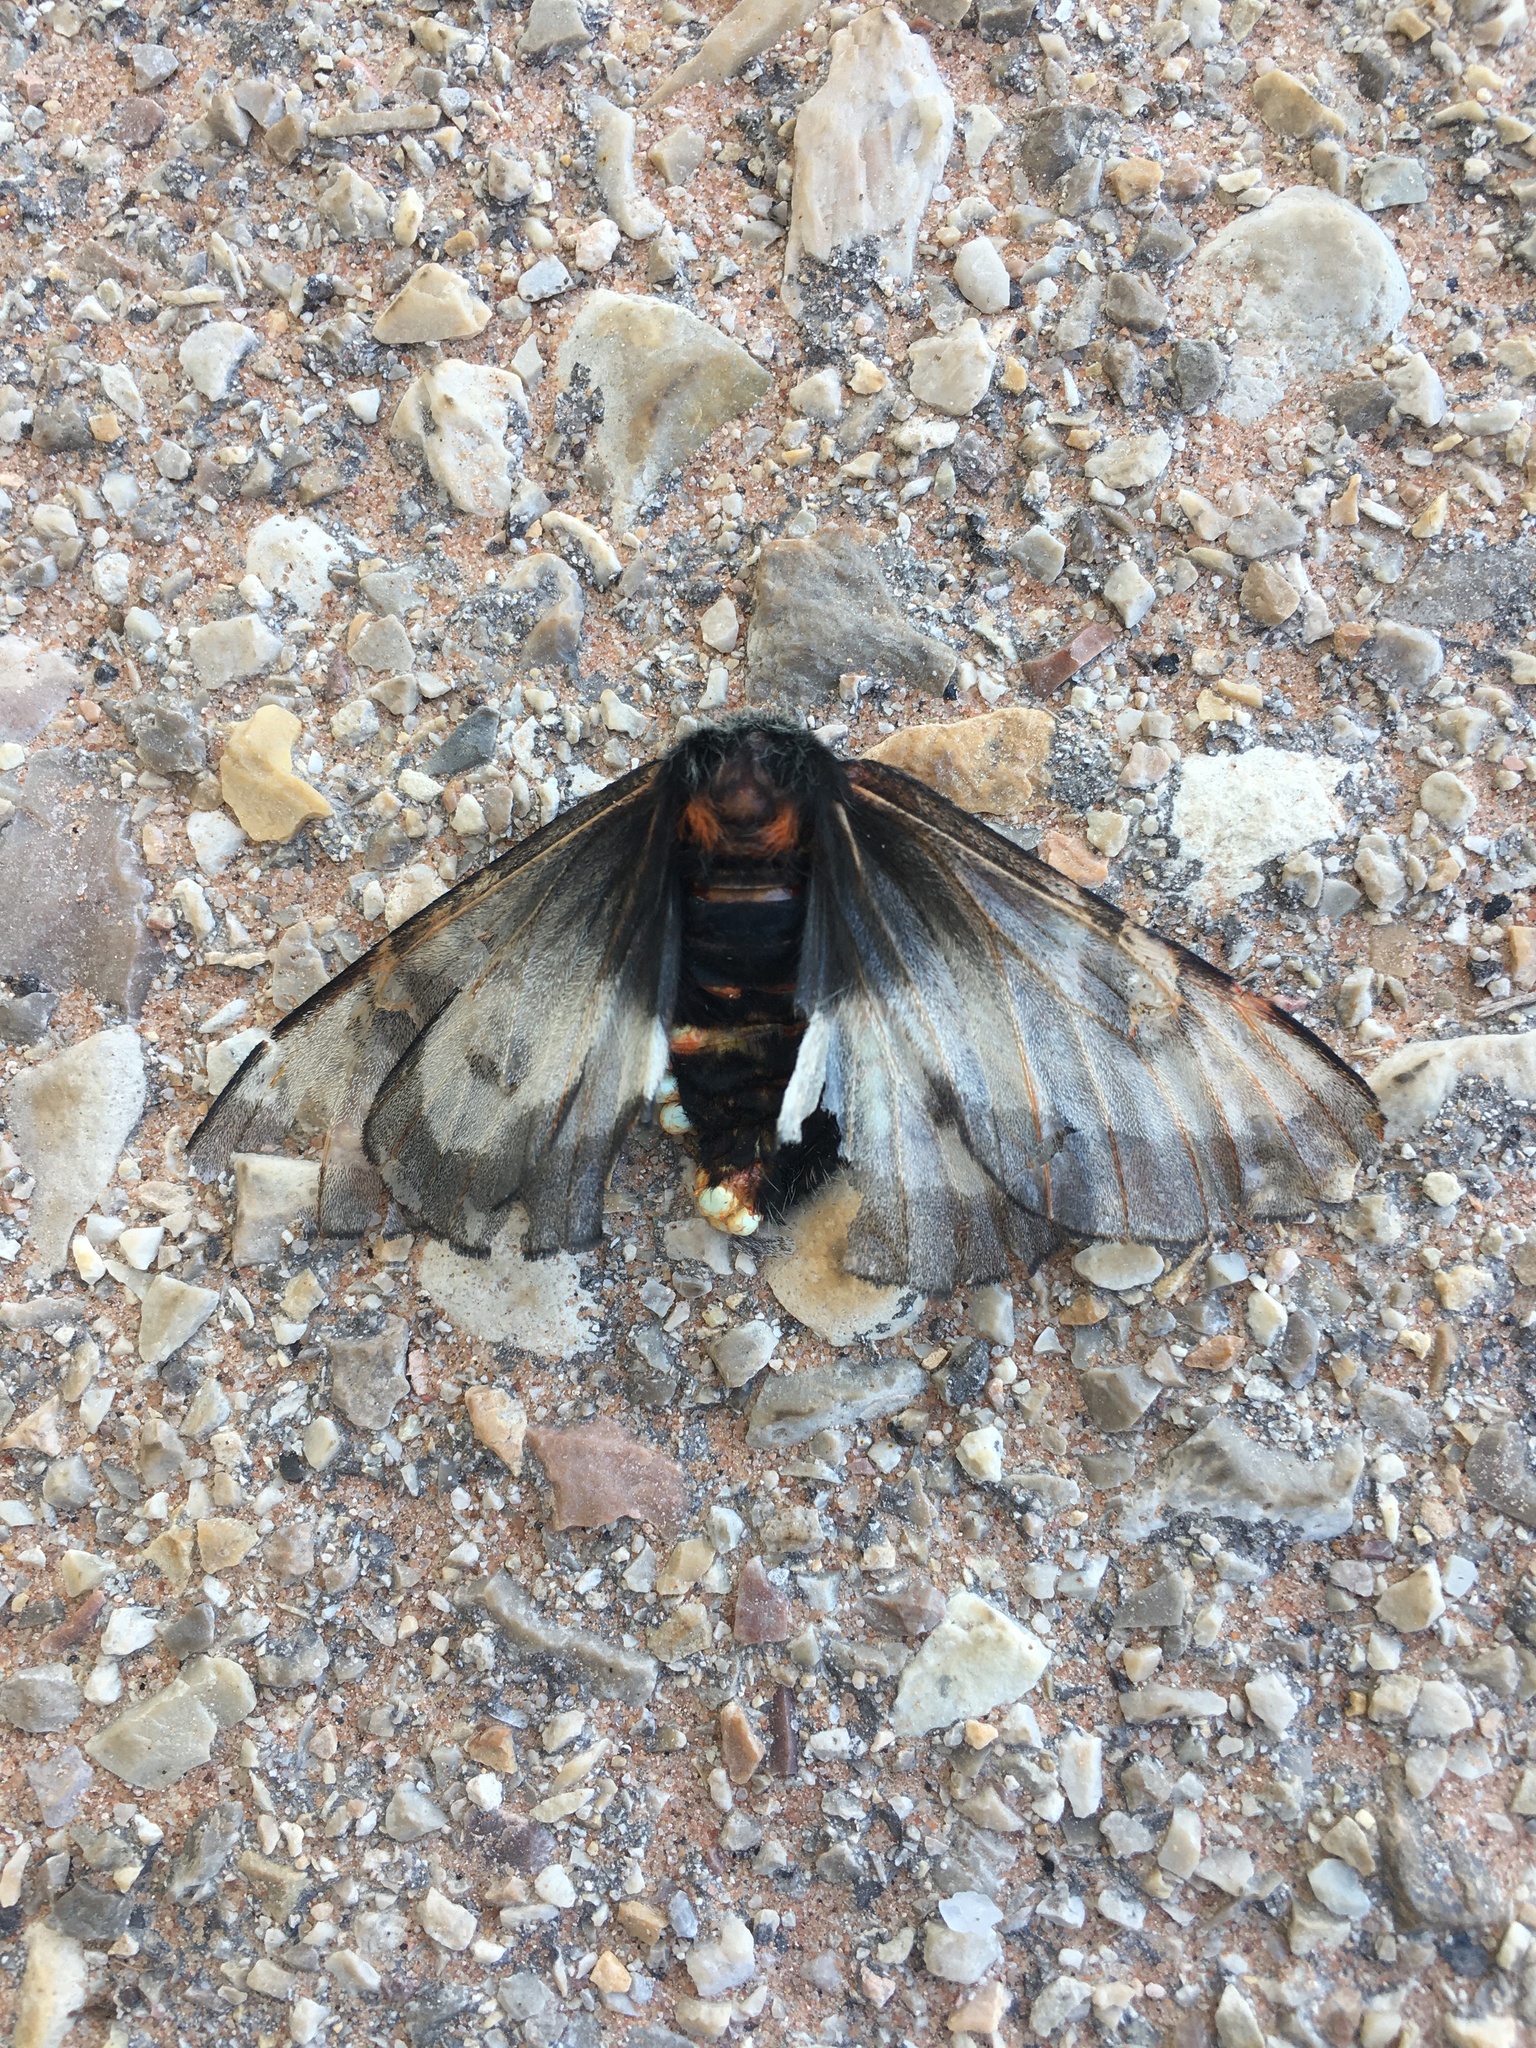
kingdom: Animalia
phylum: Arthropoda
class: Insecta
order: Lepidoptera
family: Saturniidae
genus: Hemileuca
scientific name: Hemileuca slosseri
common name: Slosser's buckmoth
